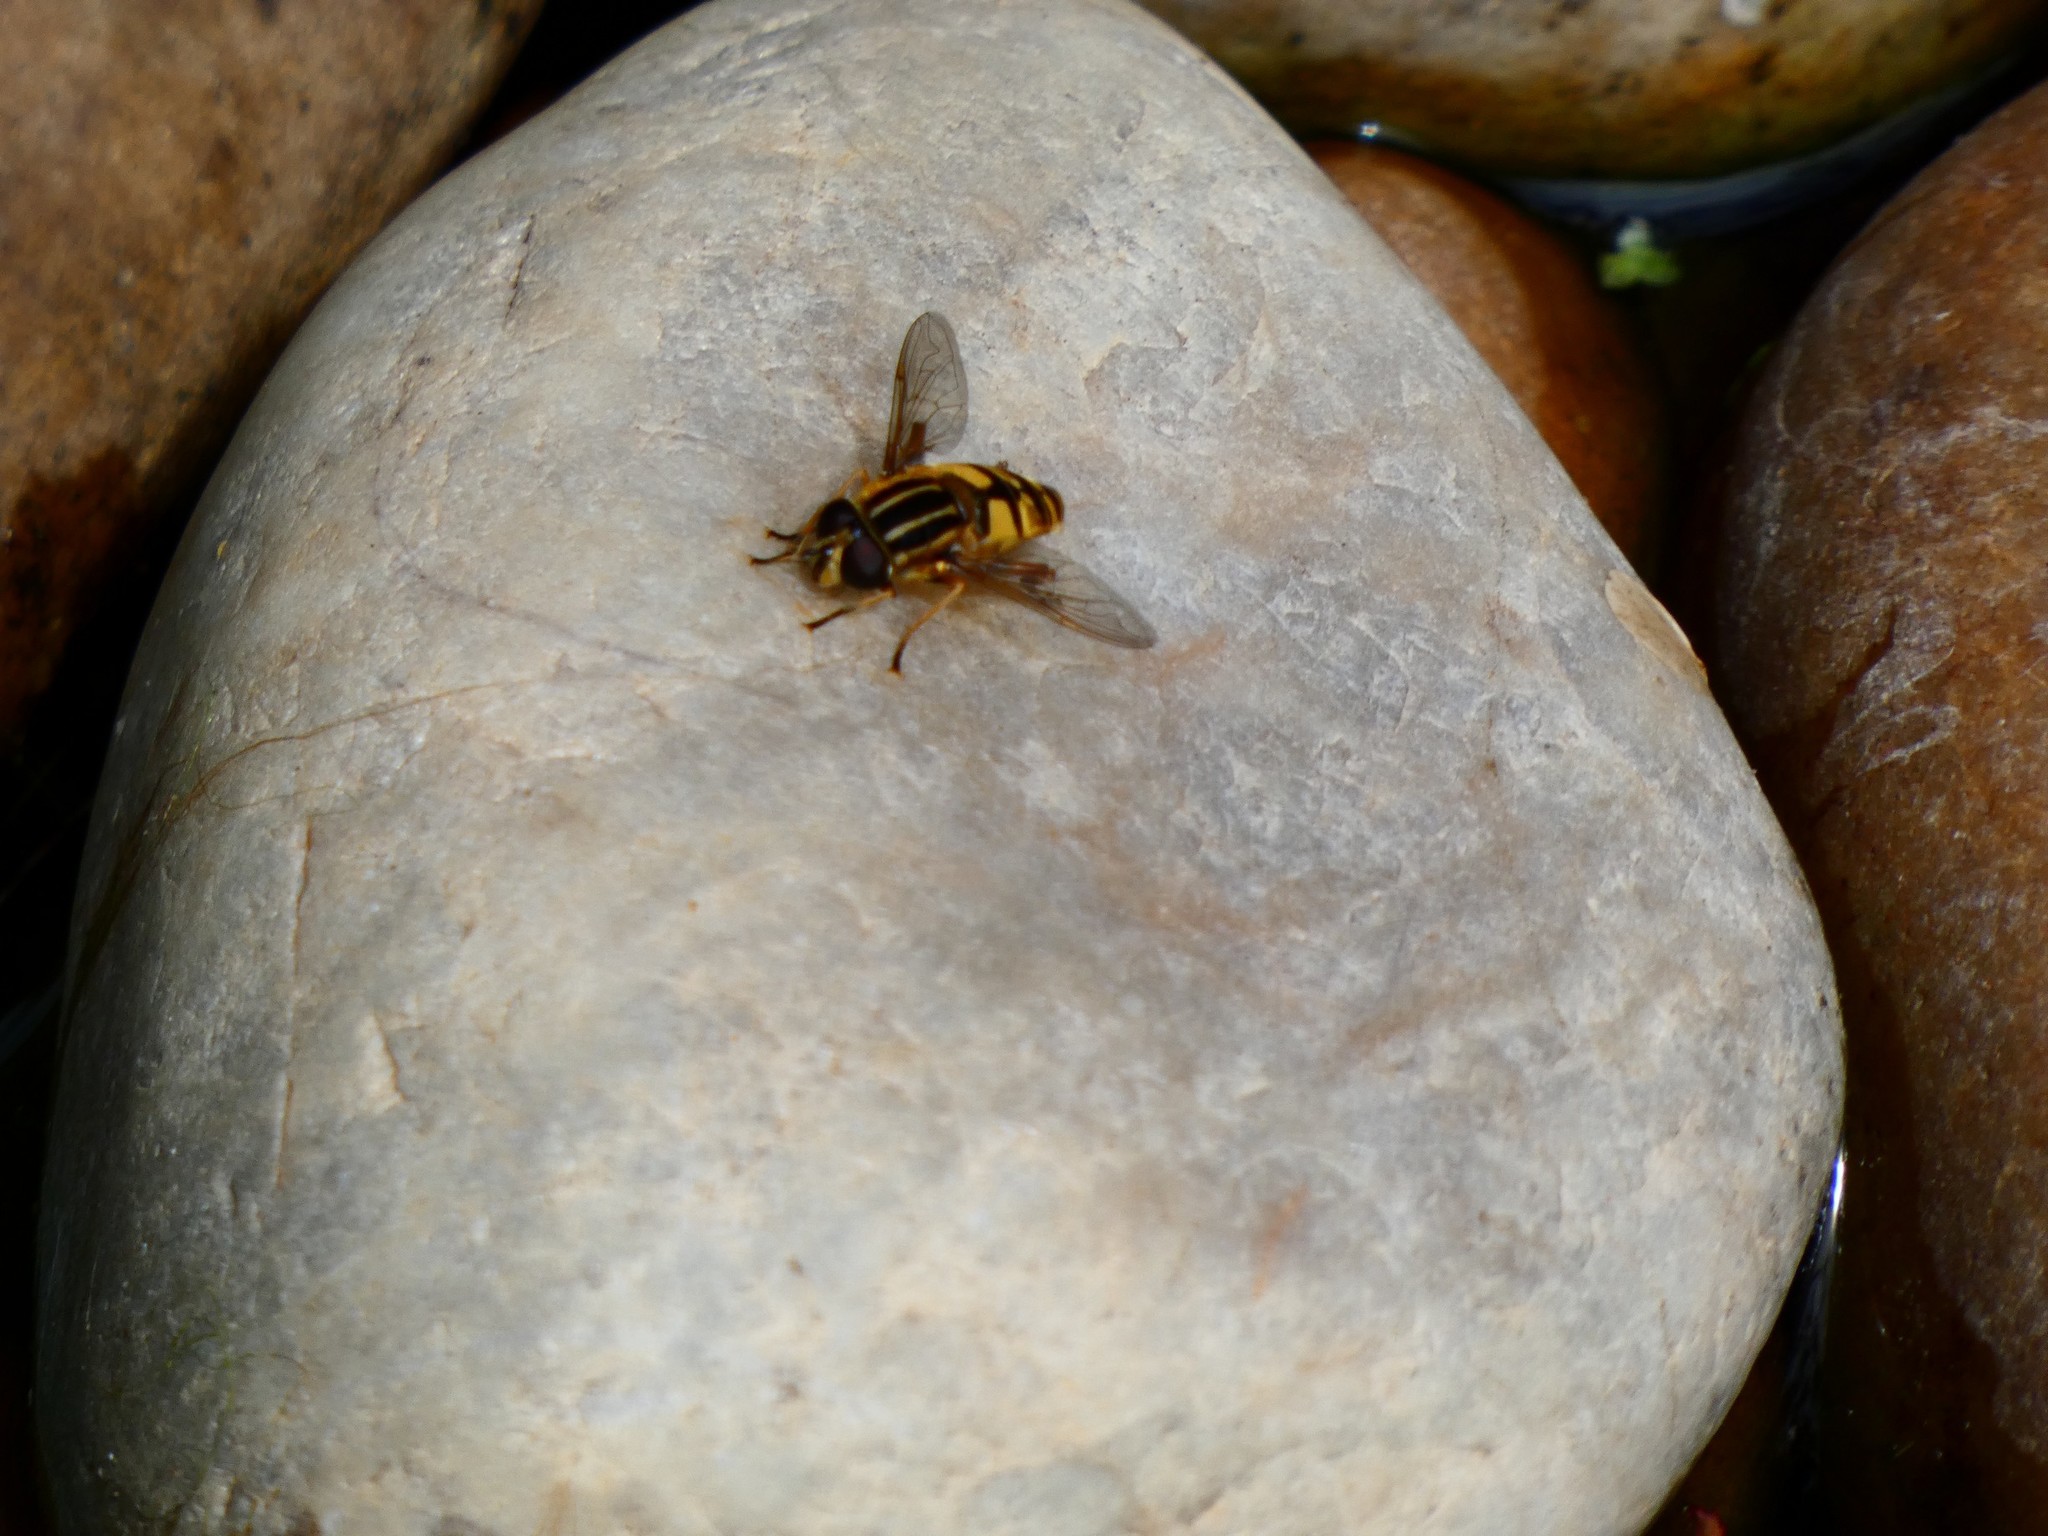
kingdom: Animalia
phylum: Arthropoda
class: Insecta
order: Diptera
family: Syrphidae
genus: Helophilus
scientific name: Helophilus pendulus
